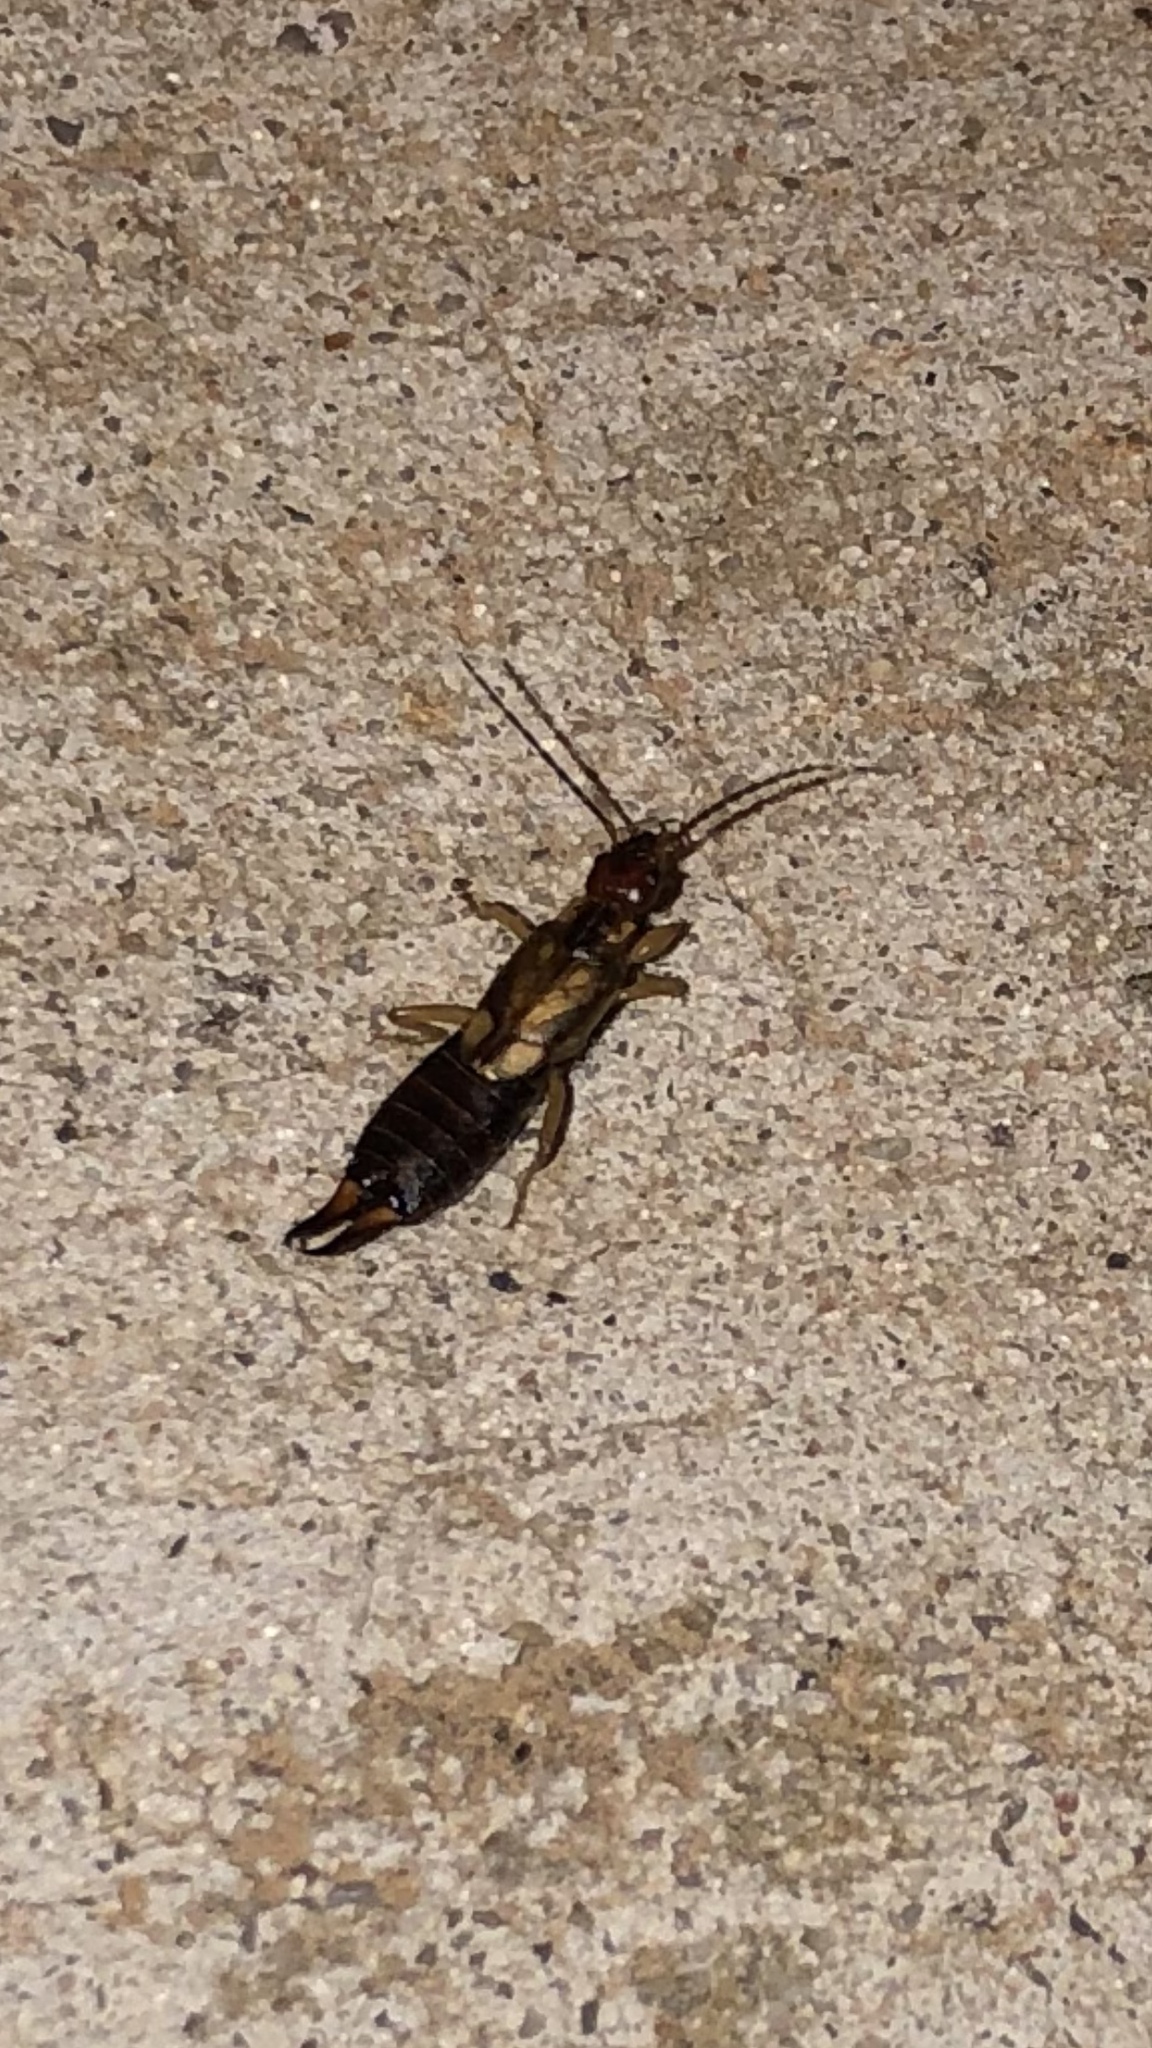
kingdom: Animalia
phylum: Arthropoda
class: Insecta
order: Dermaptera
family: Forficulidae
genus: Forficula
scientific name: Forficula
